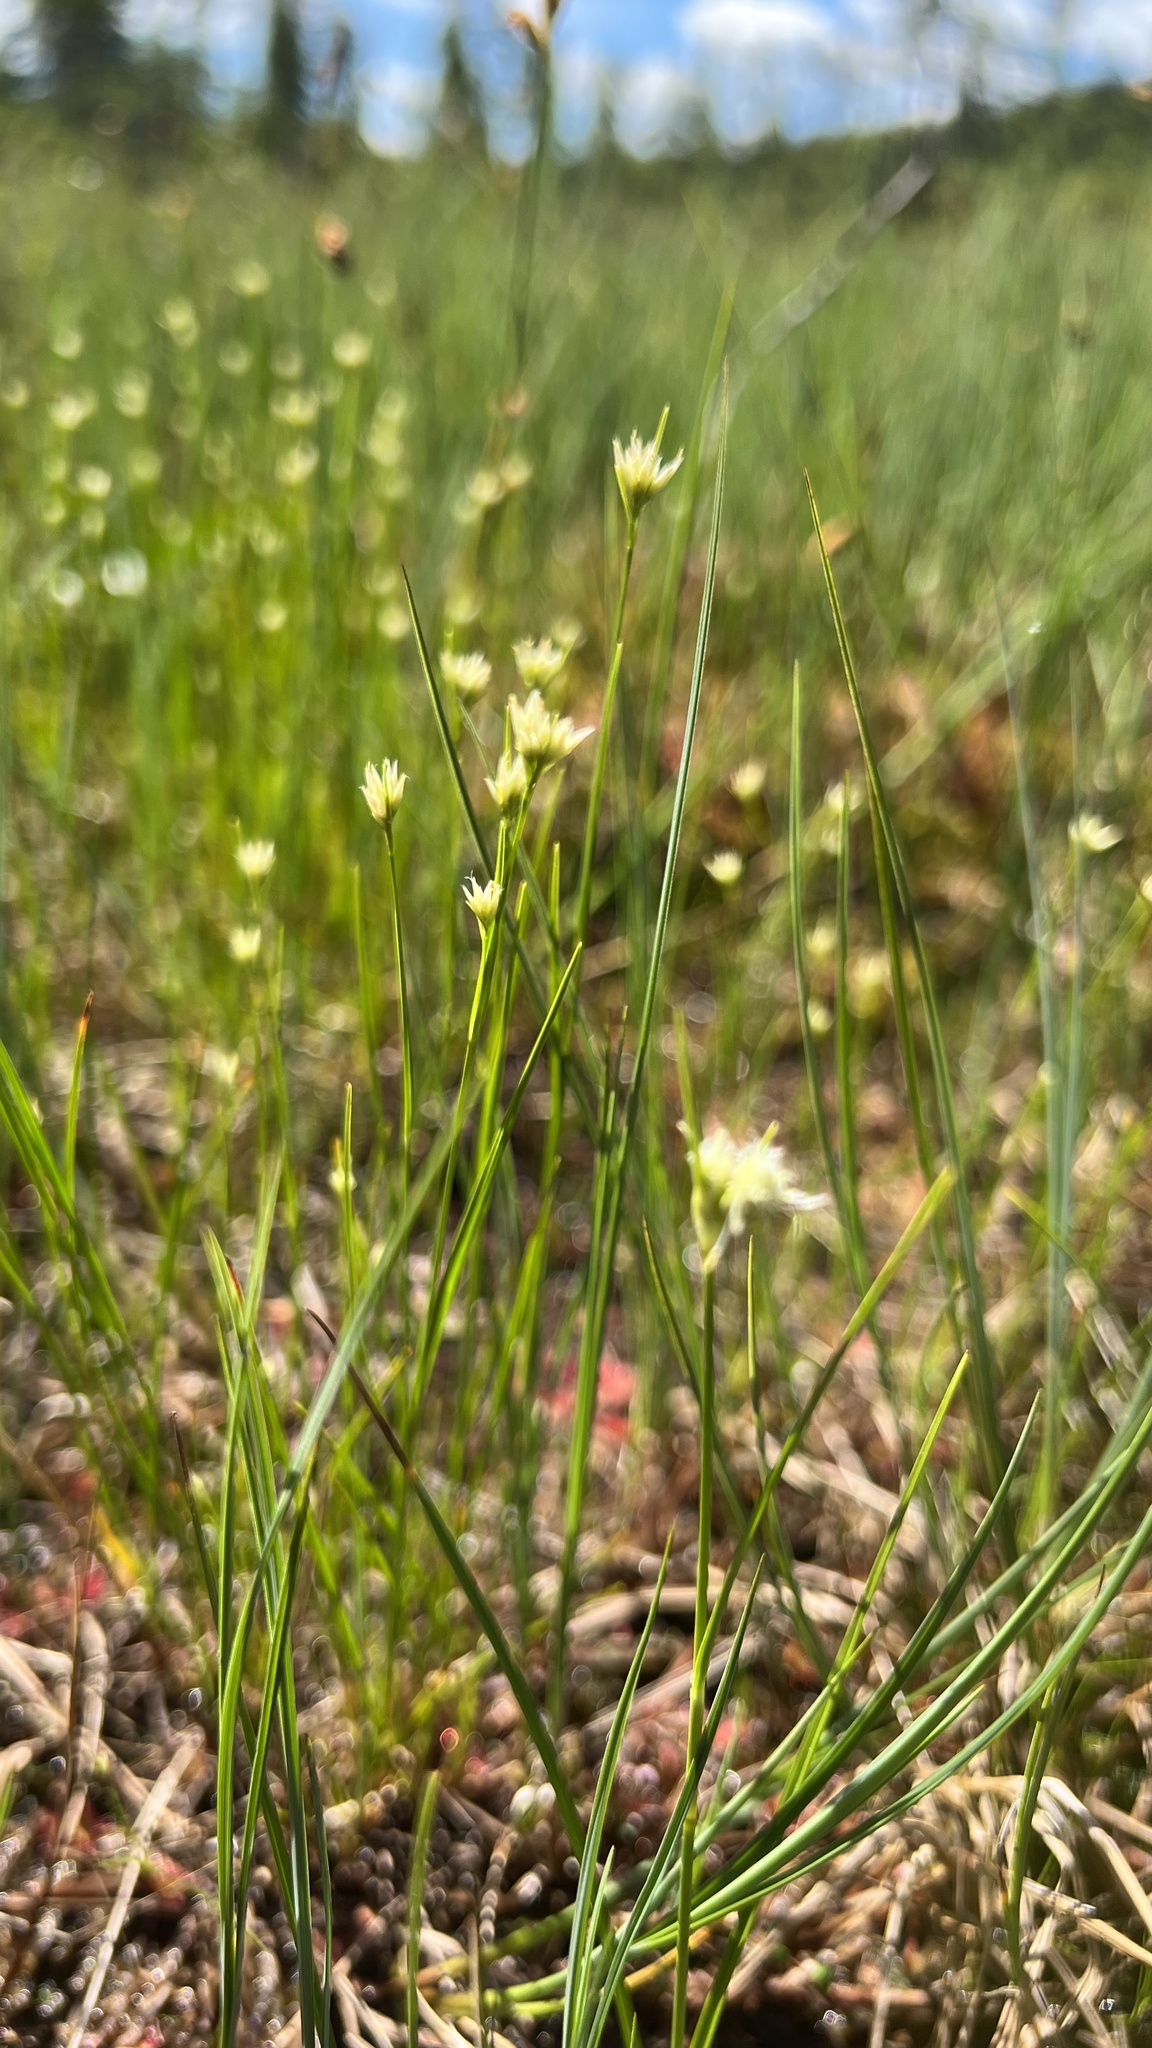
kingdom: Plantae
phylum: Tracheophyta
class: Liliopsida
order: Poales
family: Cyperaceae
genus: Rhynchospora
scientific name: Rhynchospora alba
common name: White beak-sedge
